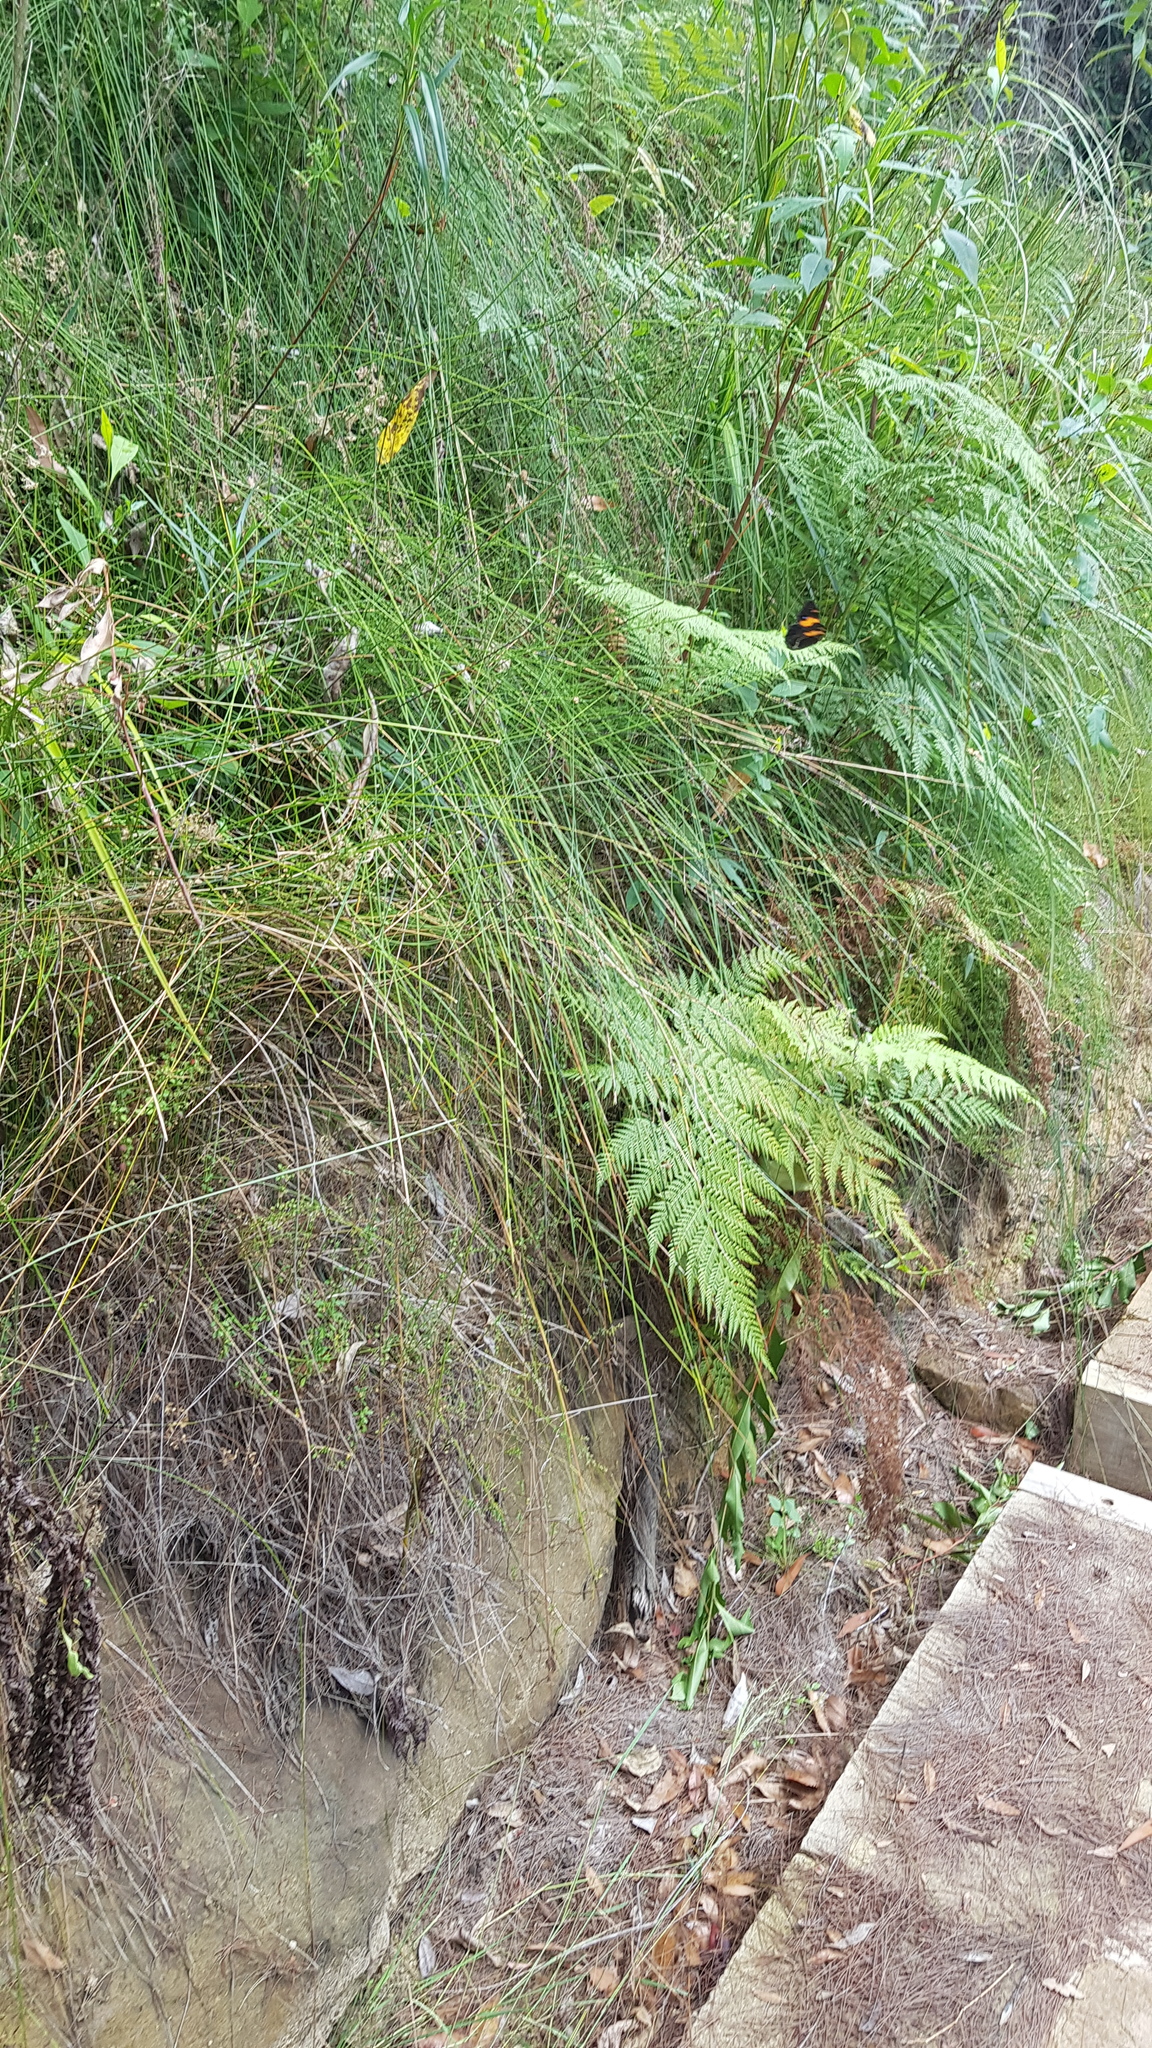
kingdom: Animalia
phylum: Arthropoda
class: Insecta
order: Lepidoptera
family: Nymphalidae
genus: Tisiphone
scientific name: Tisiphone abeona
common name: Swordgrass brown
